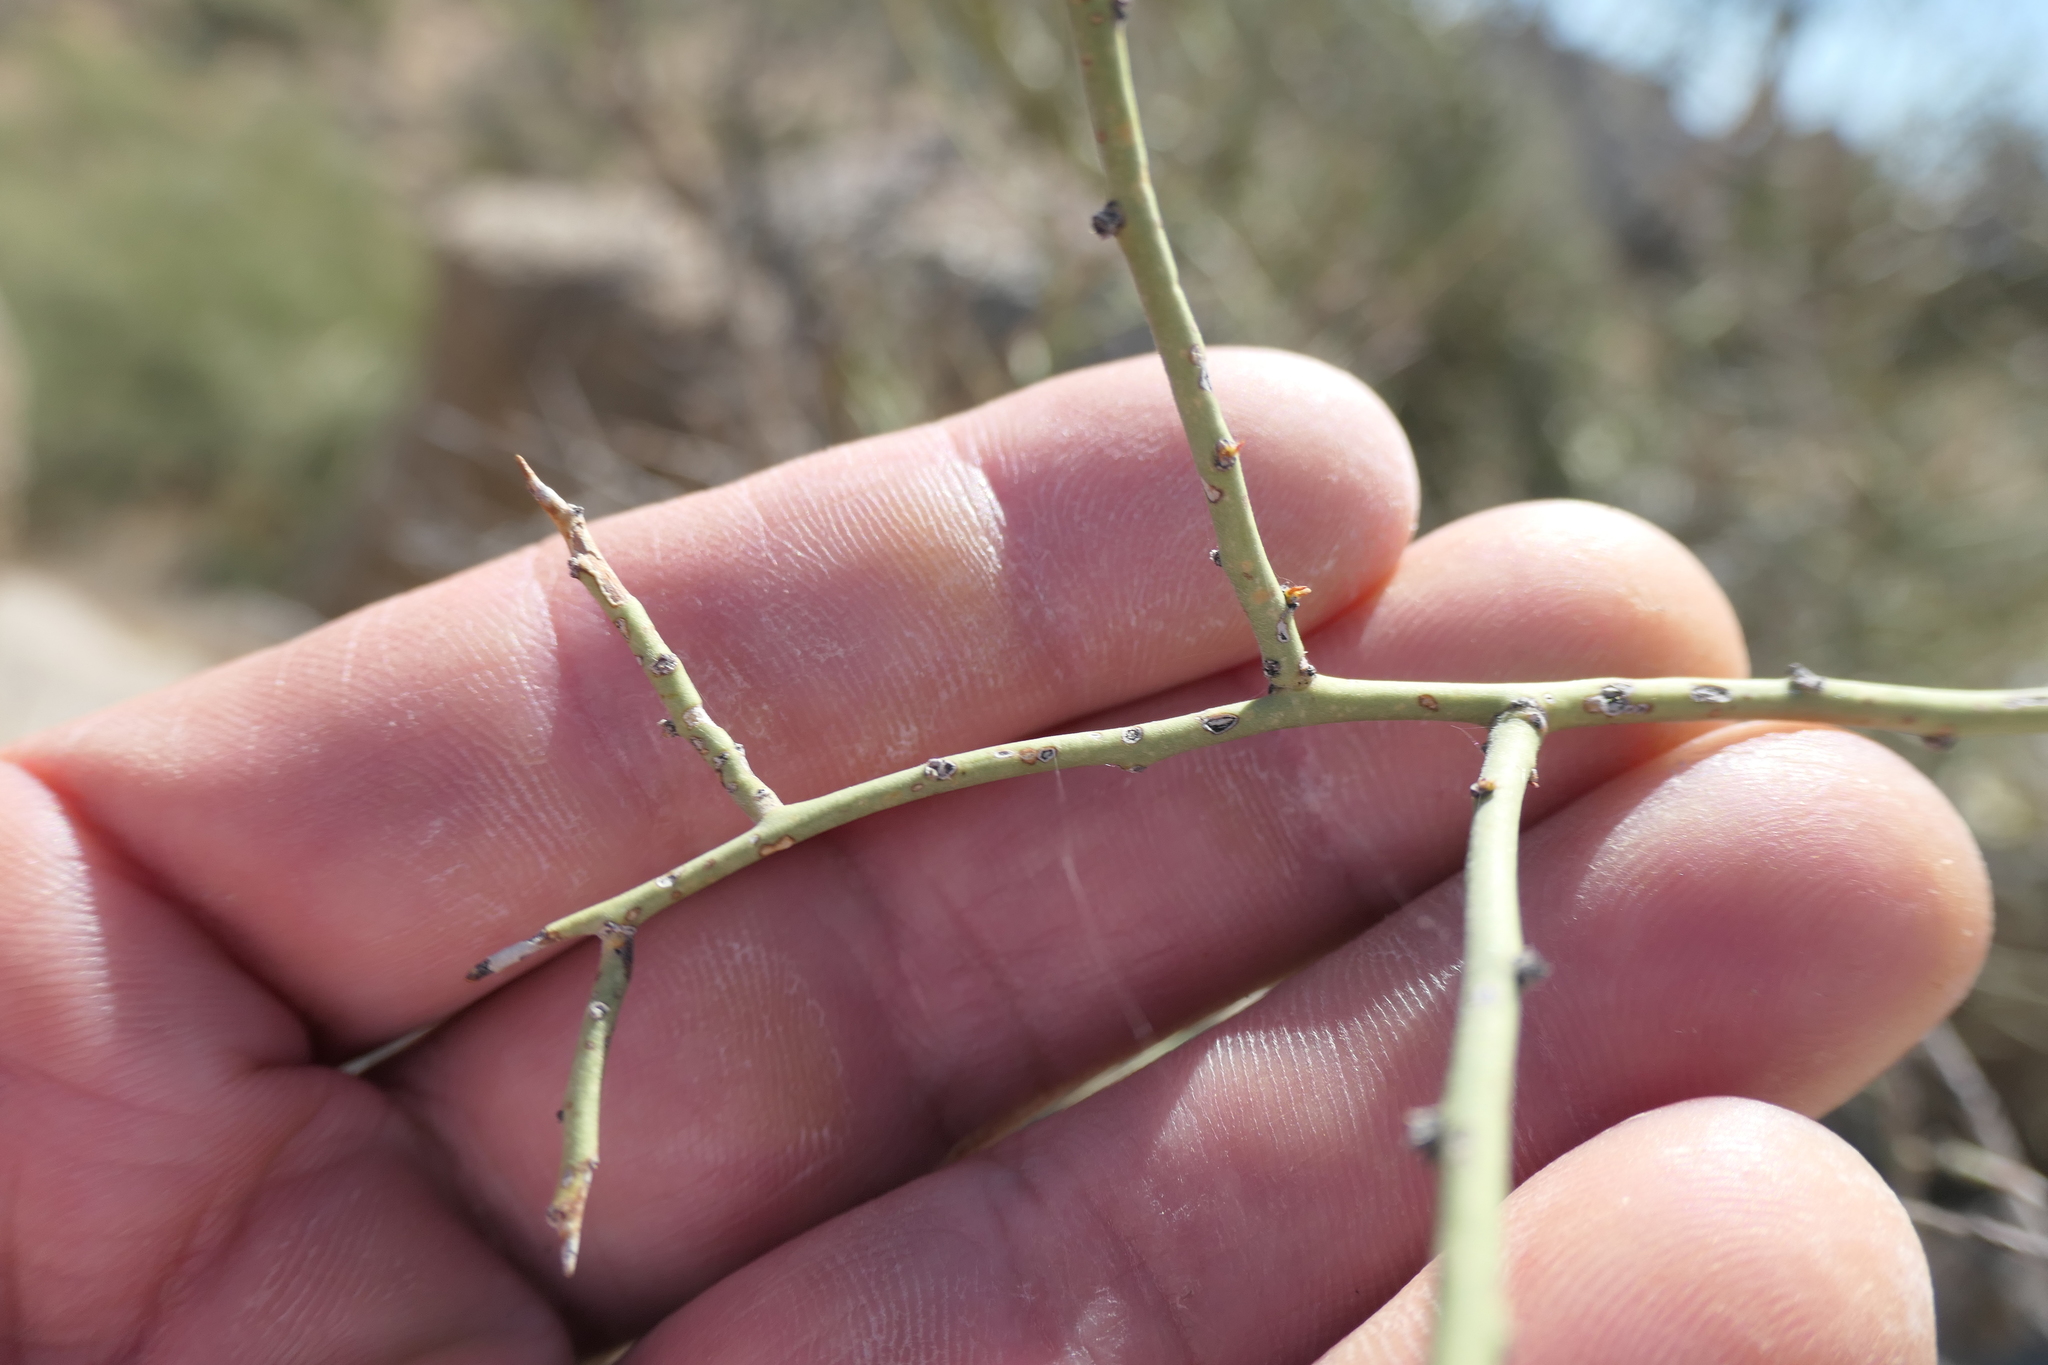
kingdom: Plantae
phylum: Tracheophyta
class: Magnoliopsida
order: Fabales
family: Fabaceae
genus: Parkinsonia
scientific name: Parkinsonia microphylla
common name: Yellow paloverde
